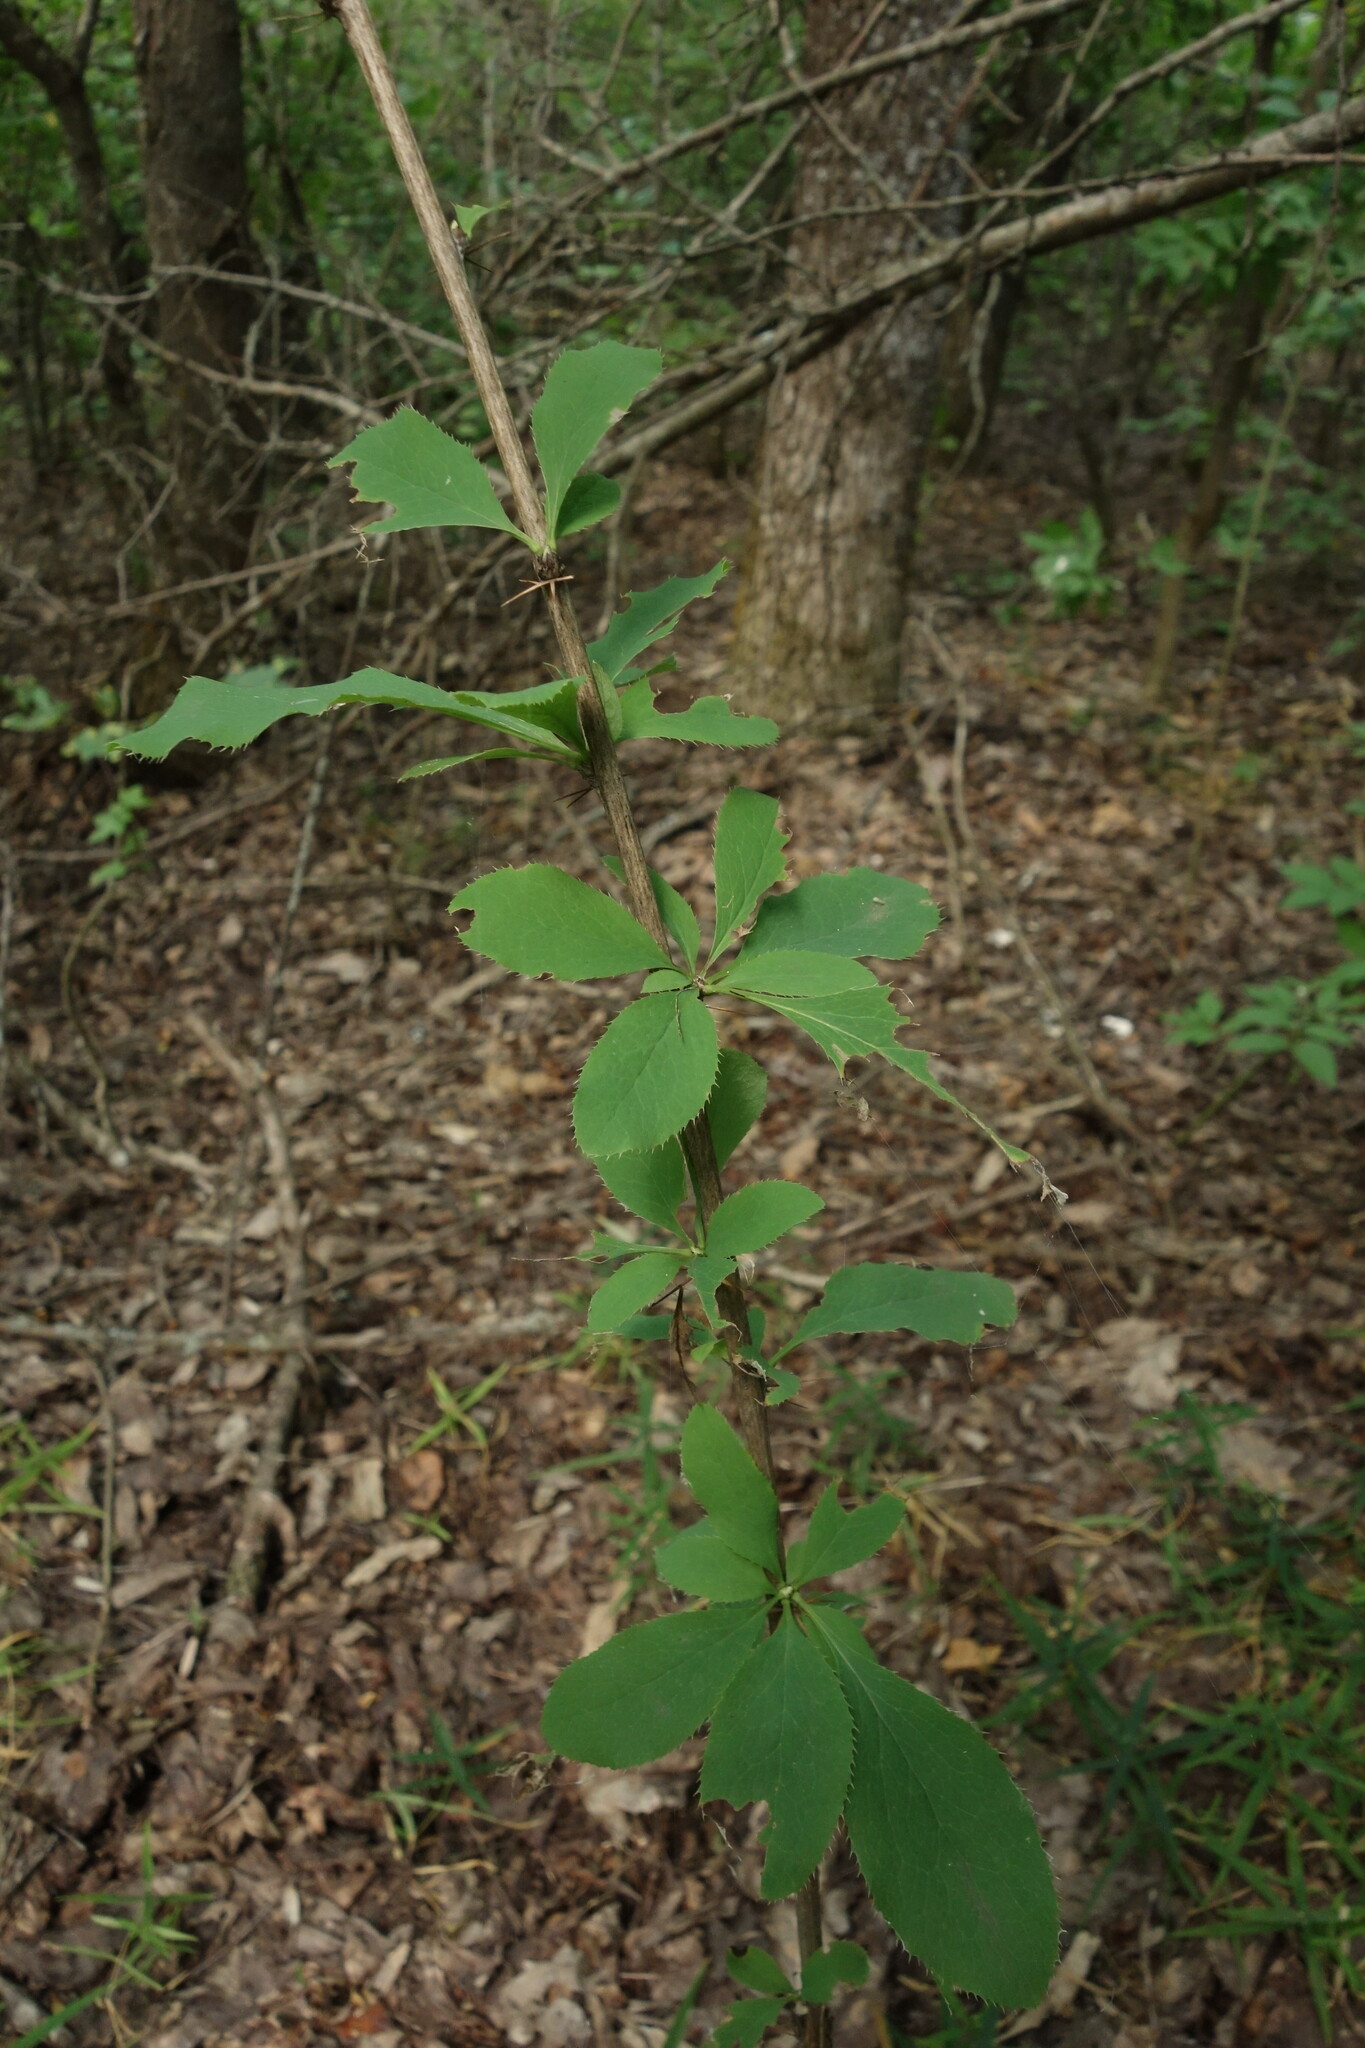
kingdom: Plantae
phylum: Tracheophyta
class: Magnoliopsida
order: Ranunculales
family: Berberidaceae
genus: Berberis
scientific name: Berberis vulgaris
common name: Barberry
